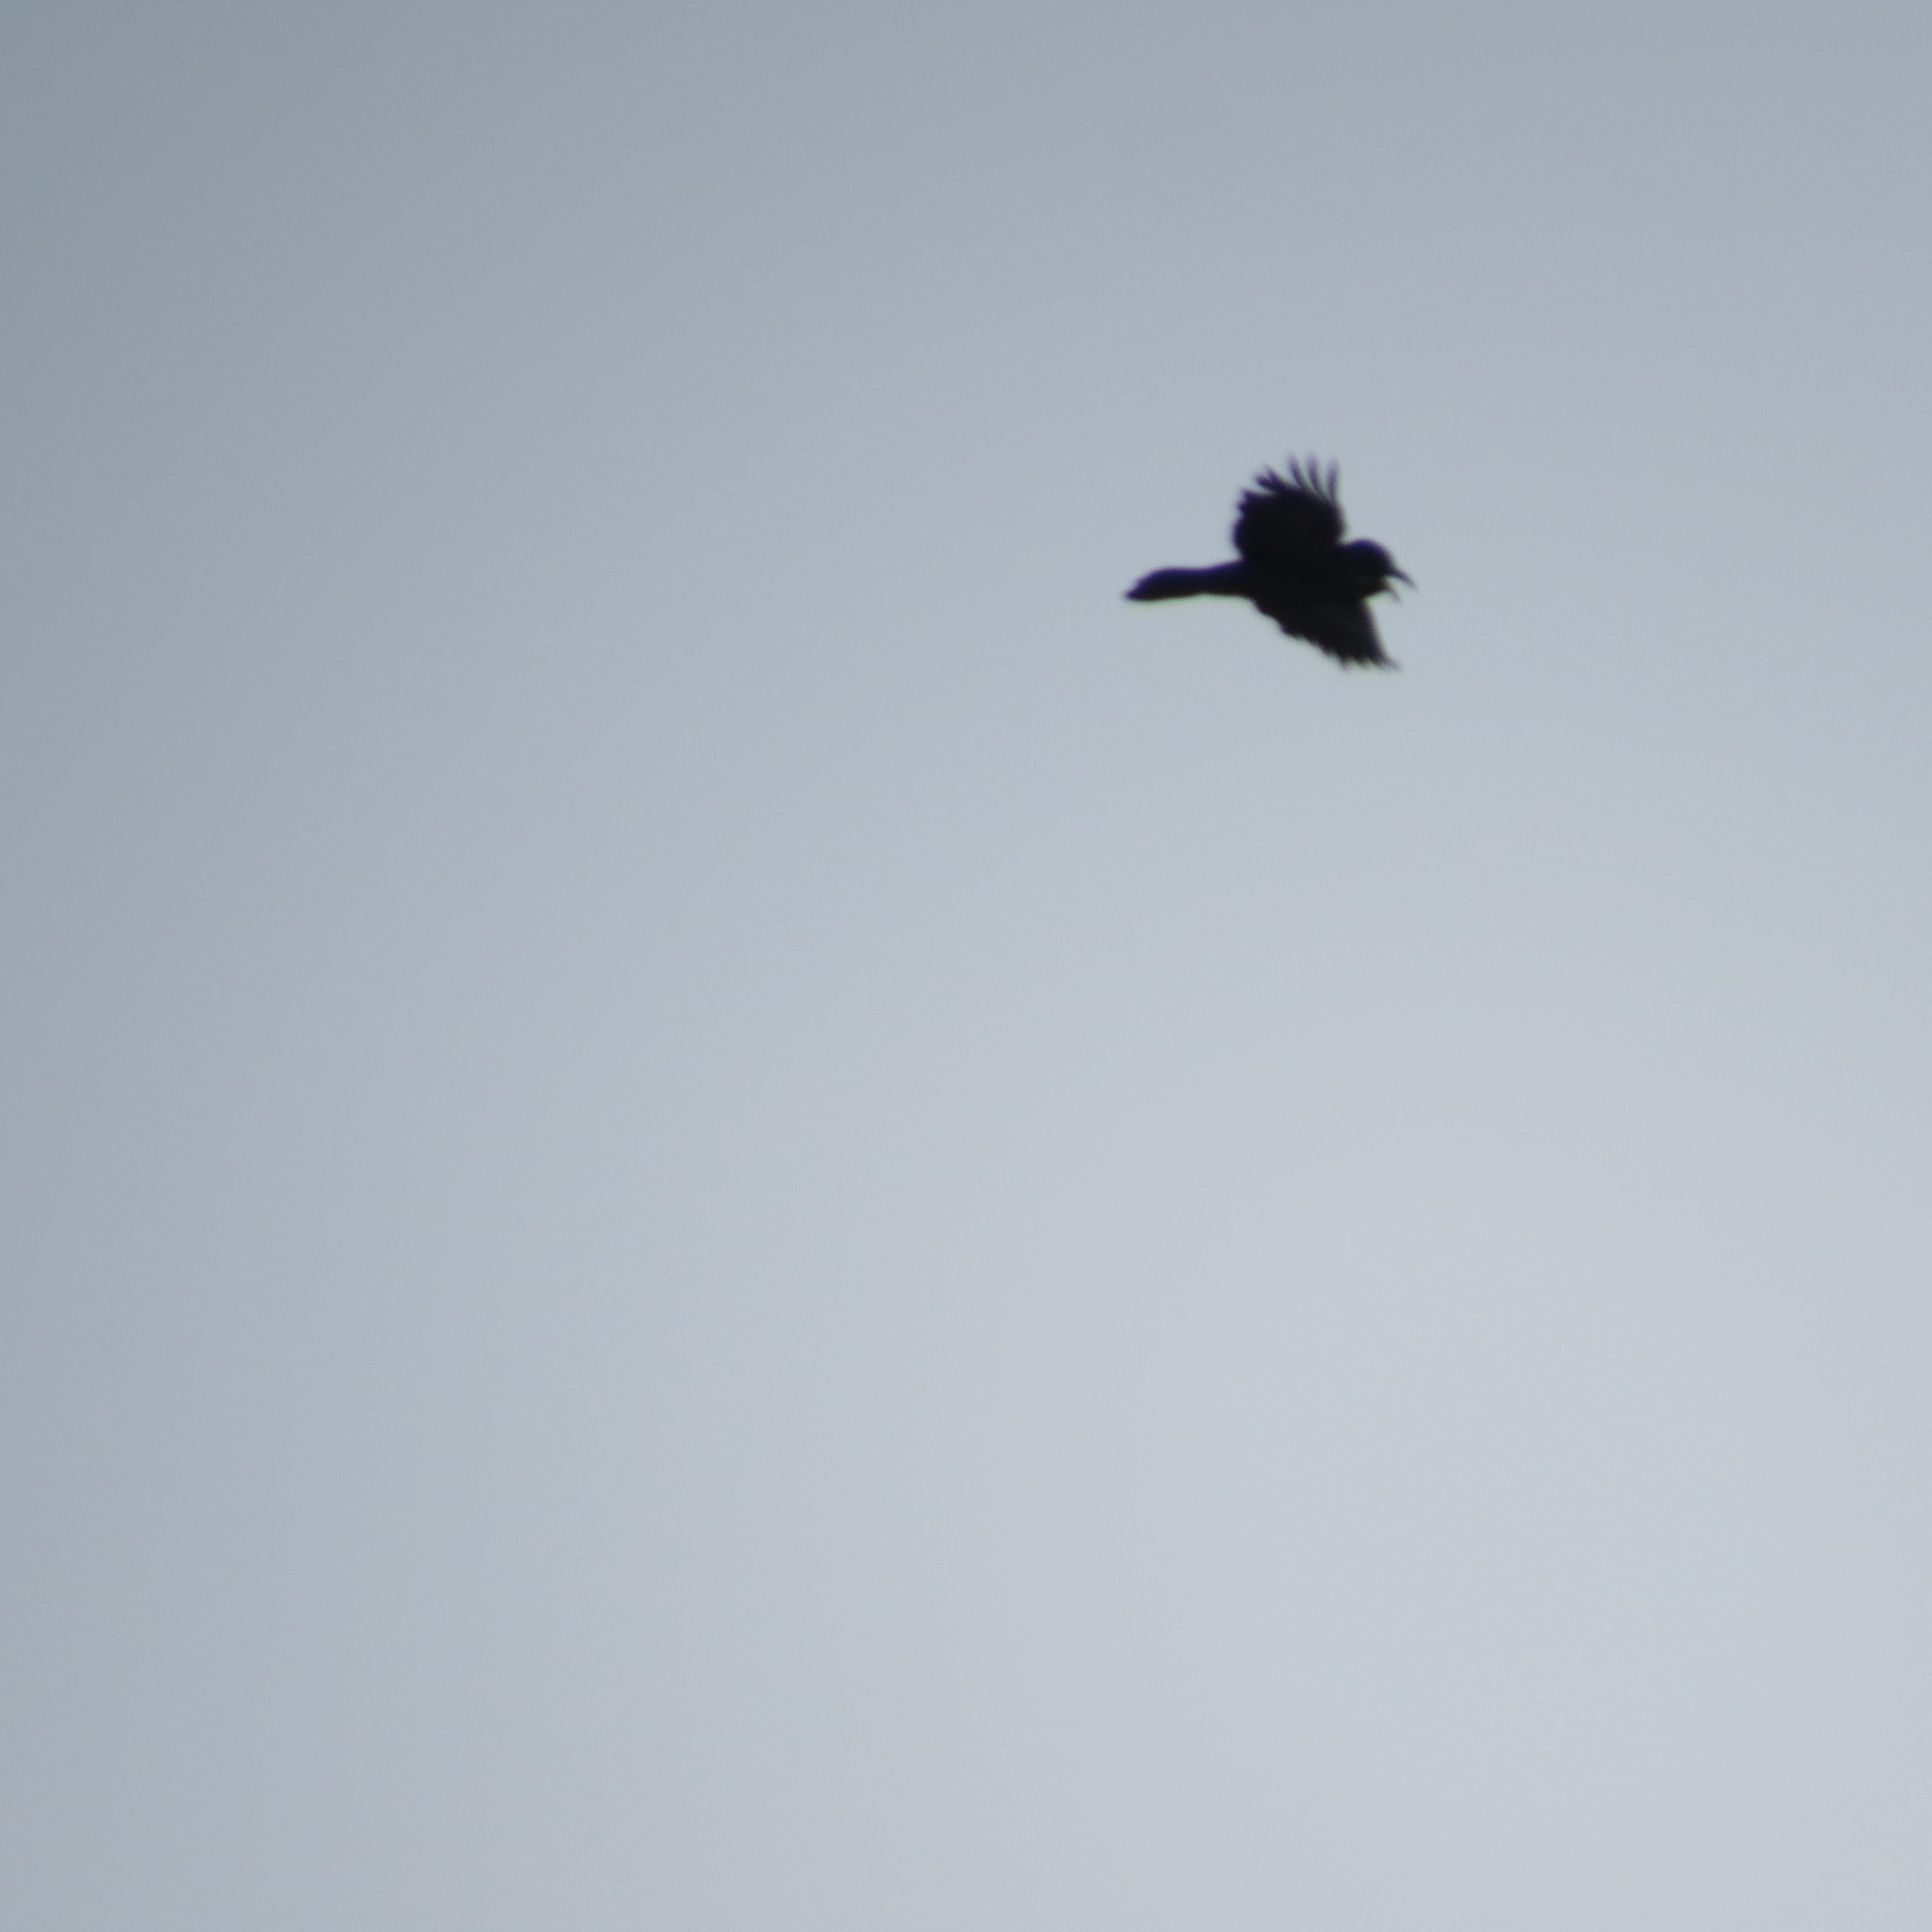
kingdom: Animalia
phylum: Chordata
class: Aves
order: Passeriformes
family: Corvidae
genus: Corvus
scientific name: Corvus corax
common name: Common raven
